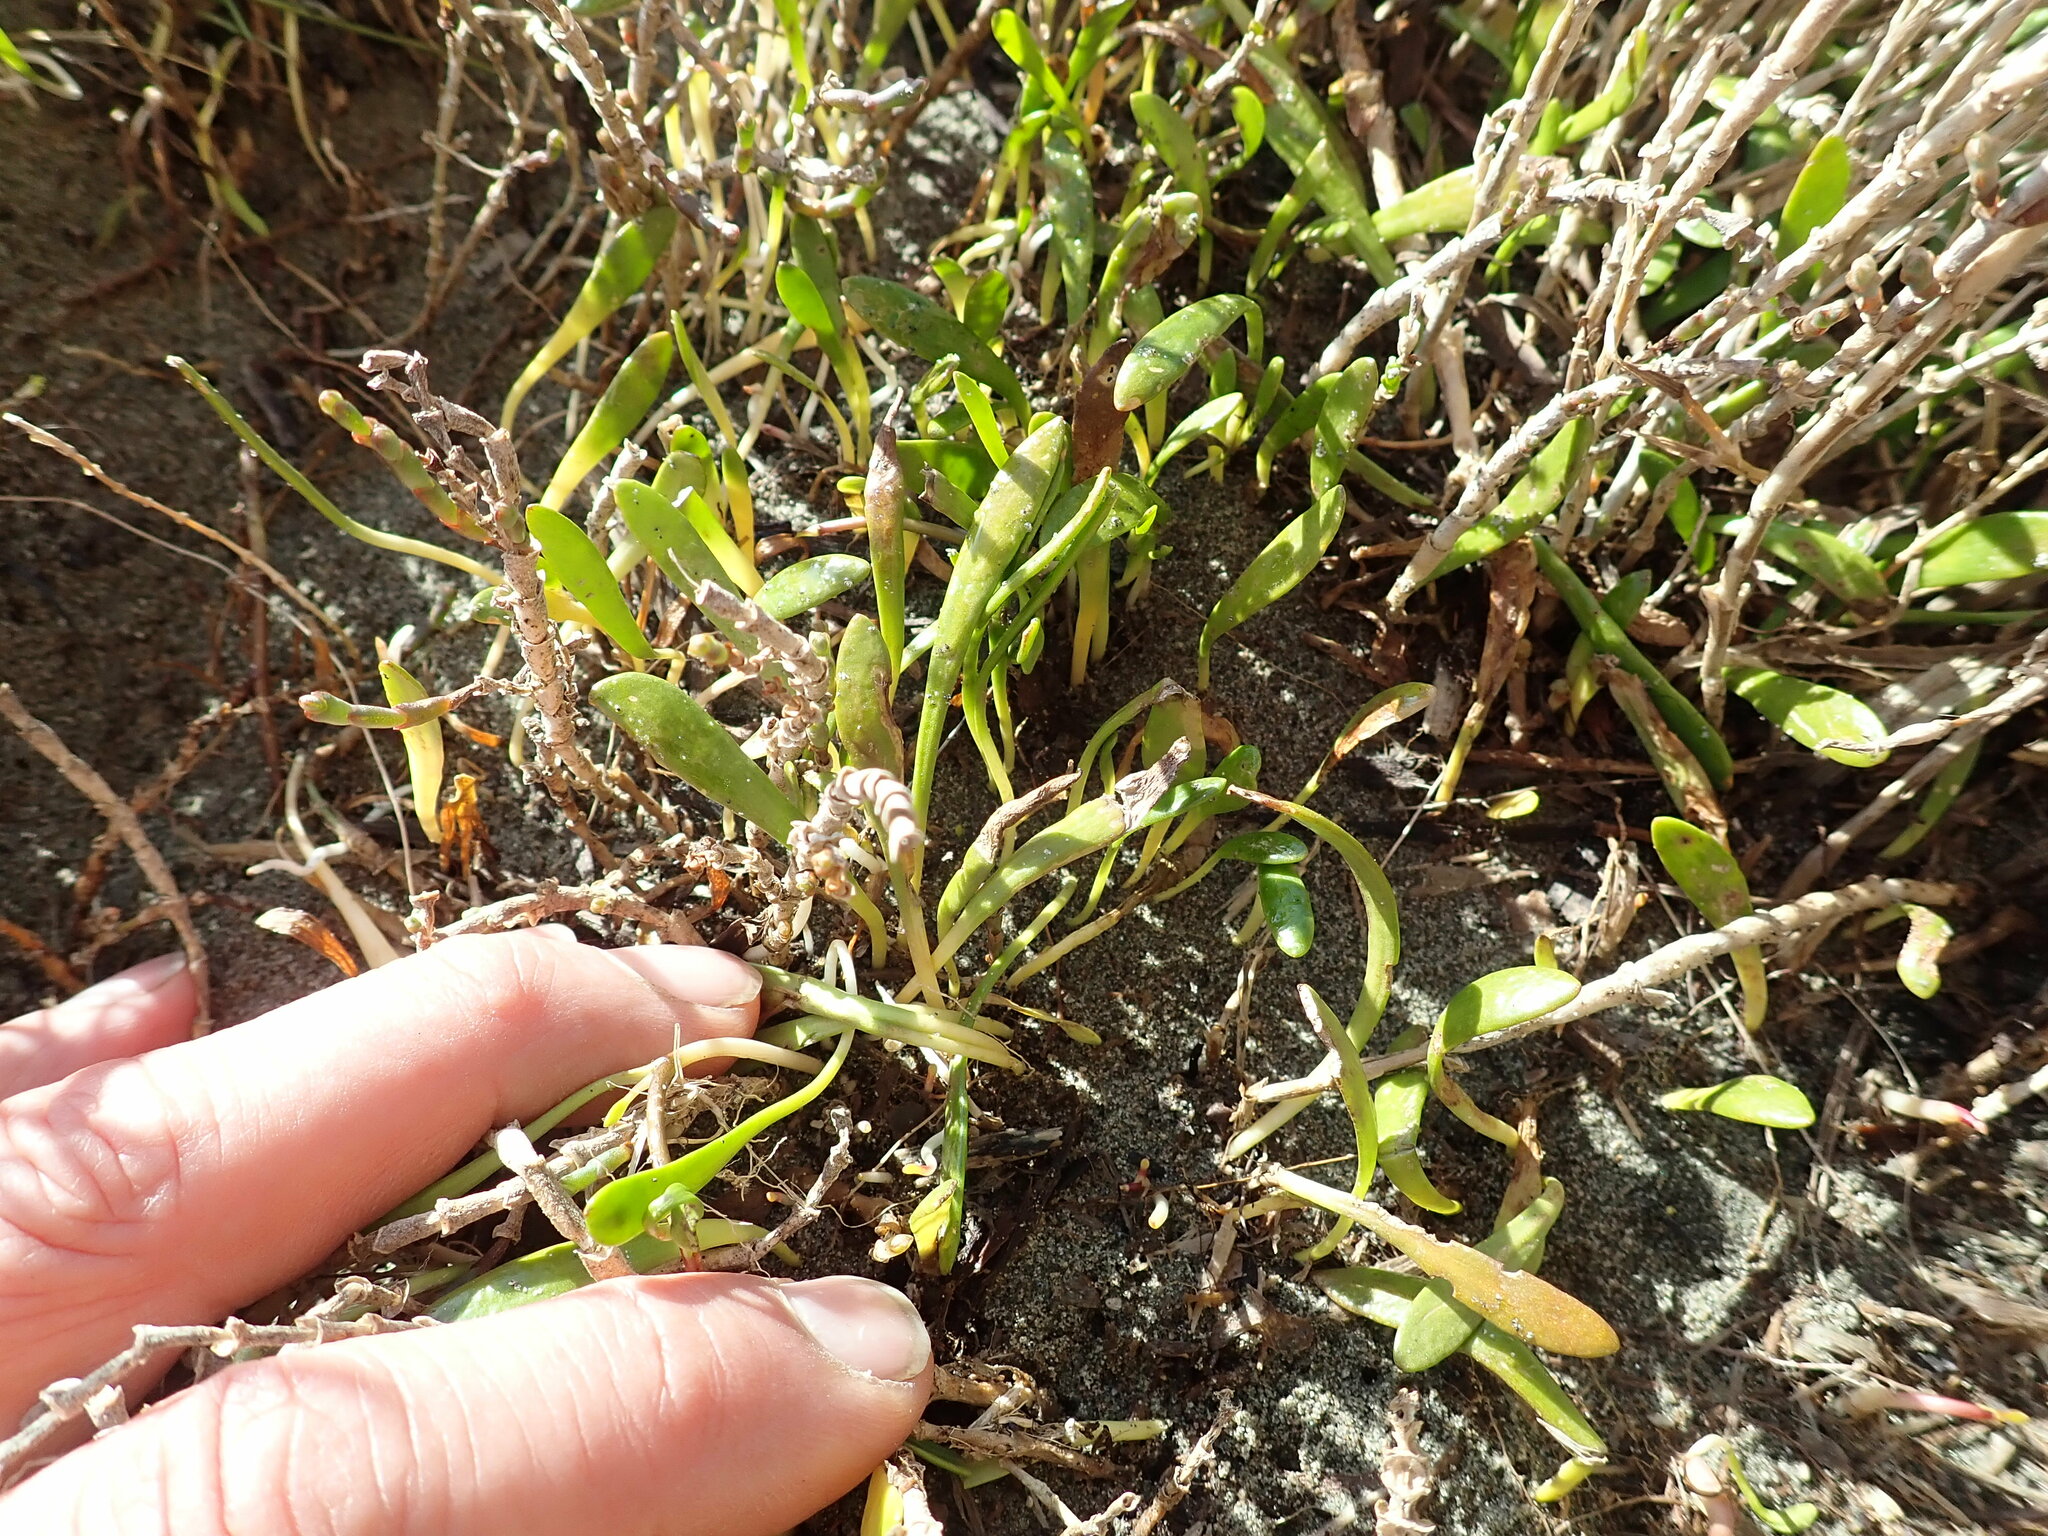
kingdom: Plantae
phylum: Tracheophyta
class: Magnoliopsida
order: Asterales
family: Goodeniaceae
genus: Goodenia
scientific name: Goodenia radicans
